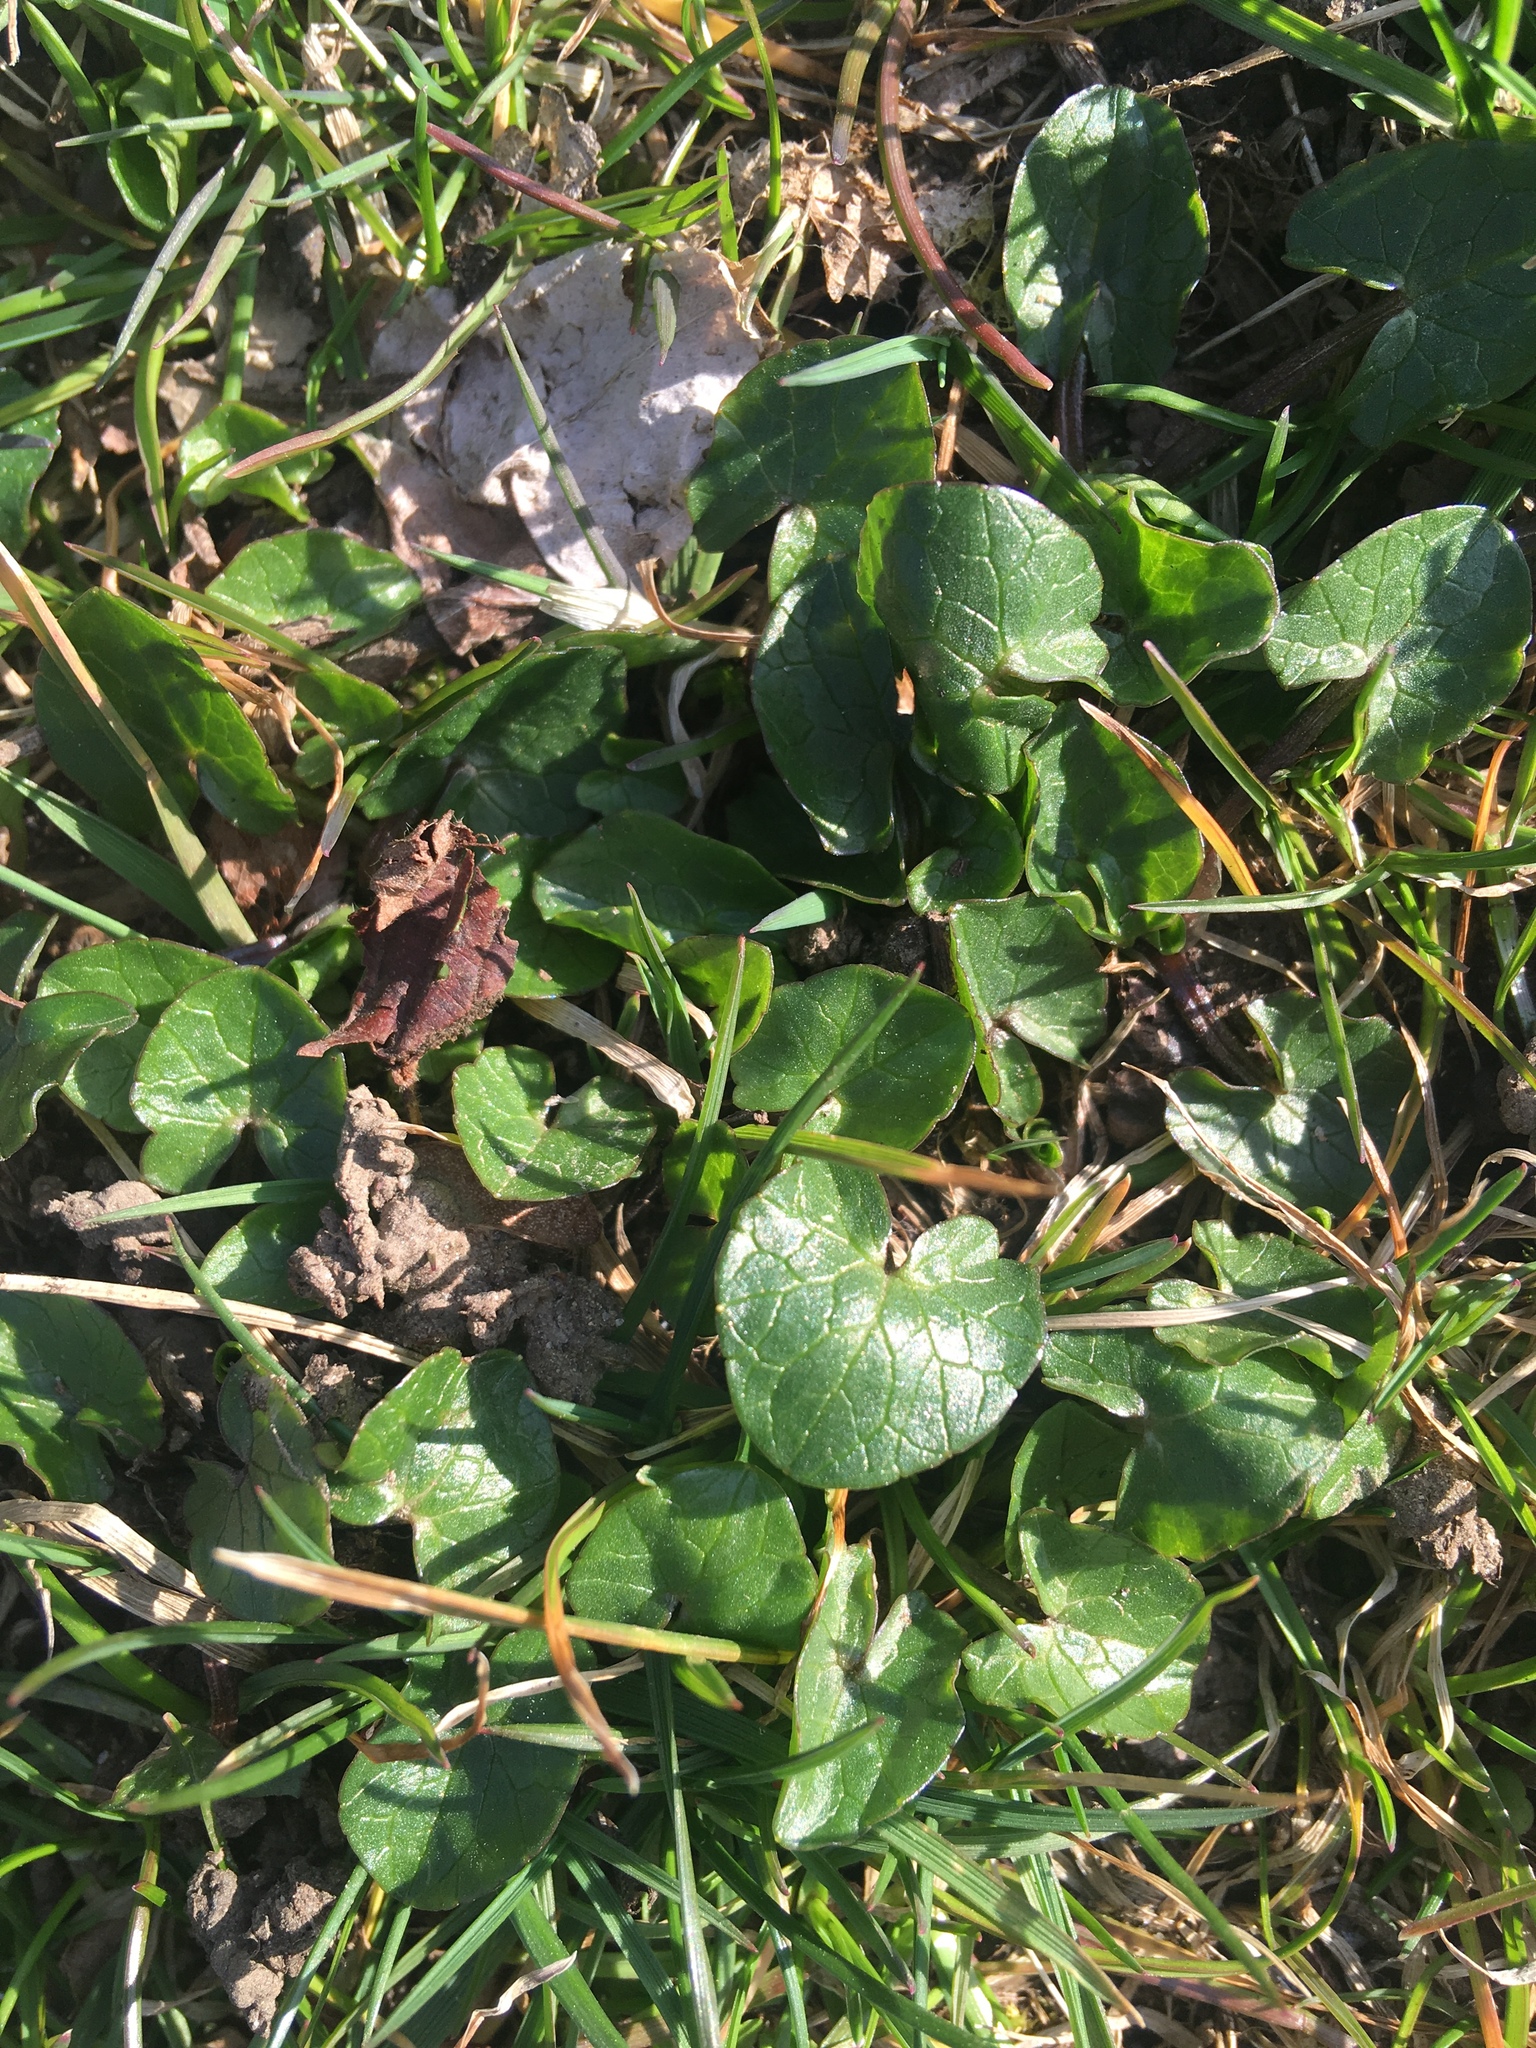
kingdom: Plantae
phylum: Tracheophyta
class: Magnoliopsida
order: Ranunculales
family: Ranunculaceae
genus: Ficaria
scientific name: Ficaria verna
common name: Lesser celandine
